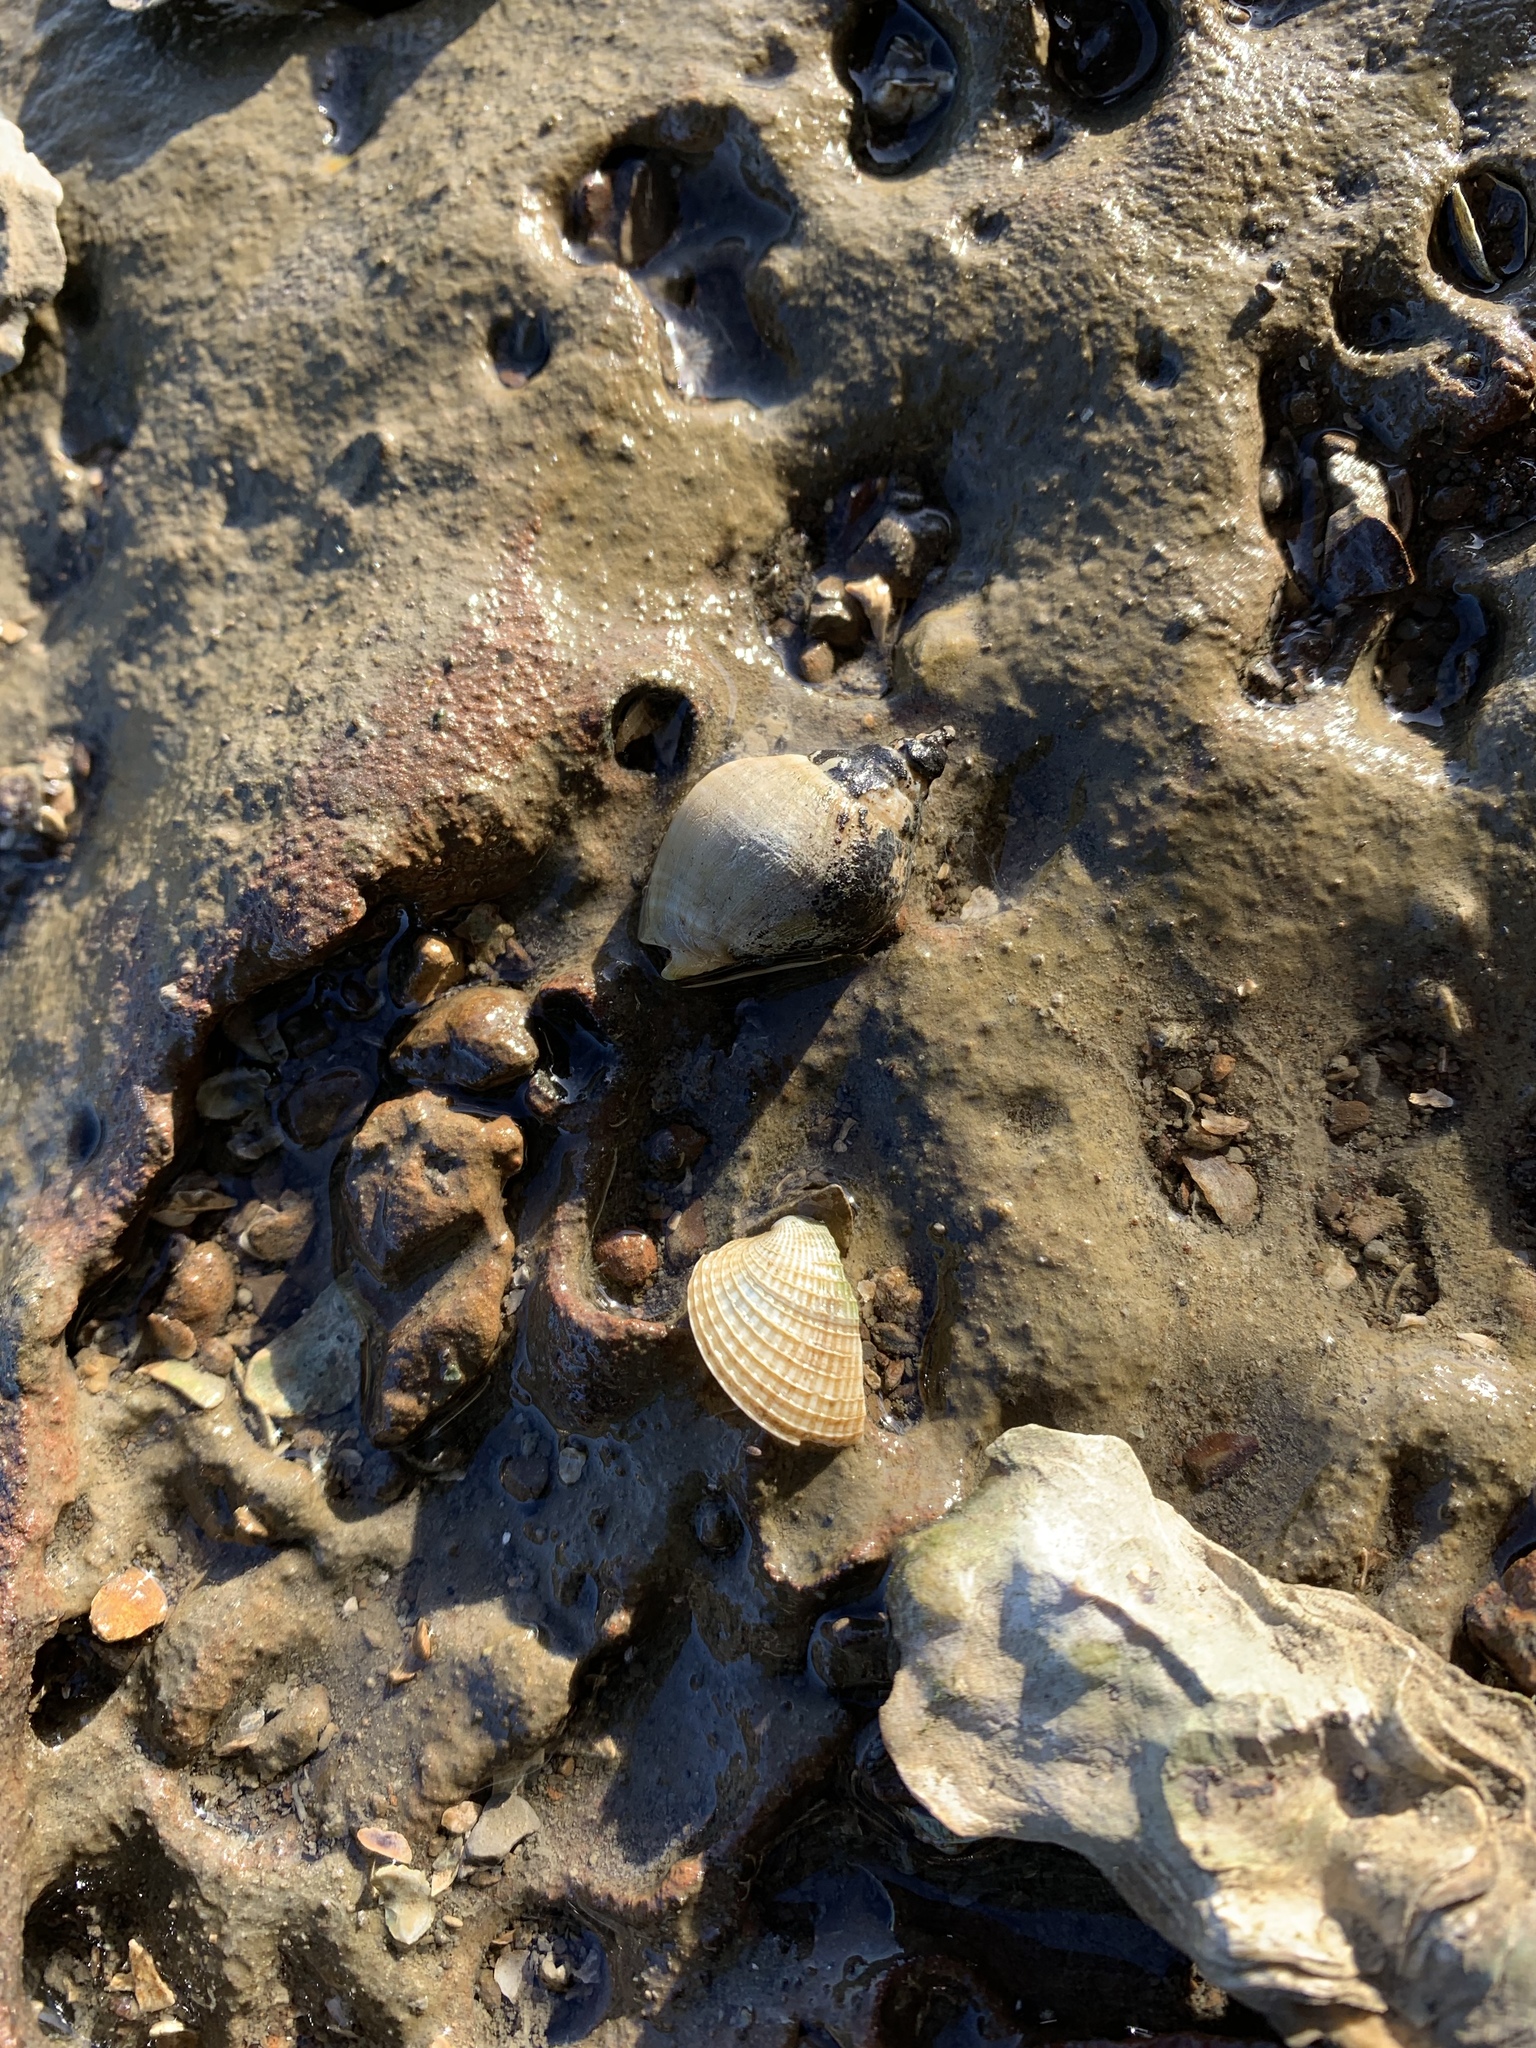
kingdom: Animalia
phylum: Mollusca
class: Gastropoda
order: Neogastropoda
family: Cominellidae
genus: Cominella
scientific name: Cominella adspersa
